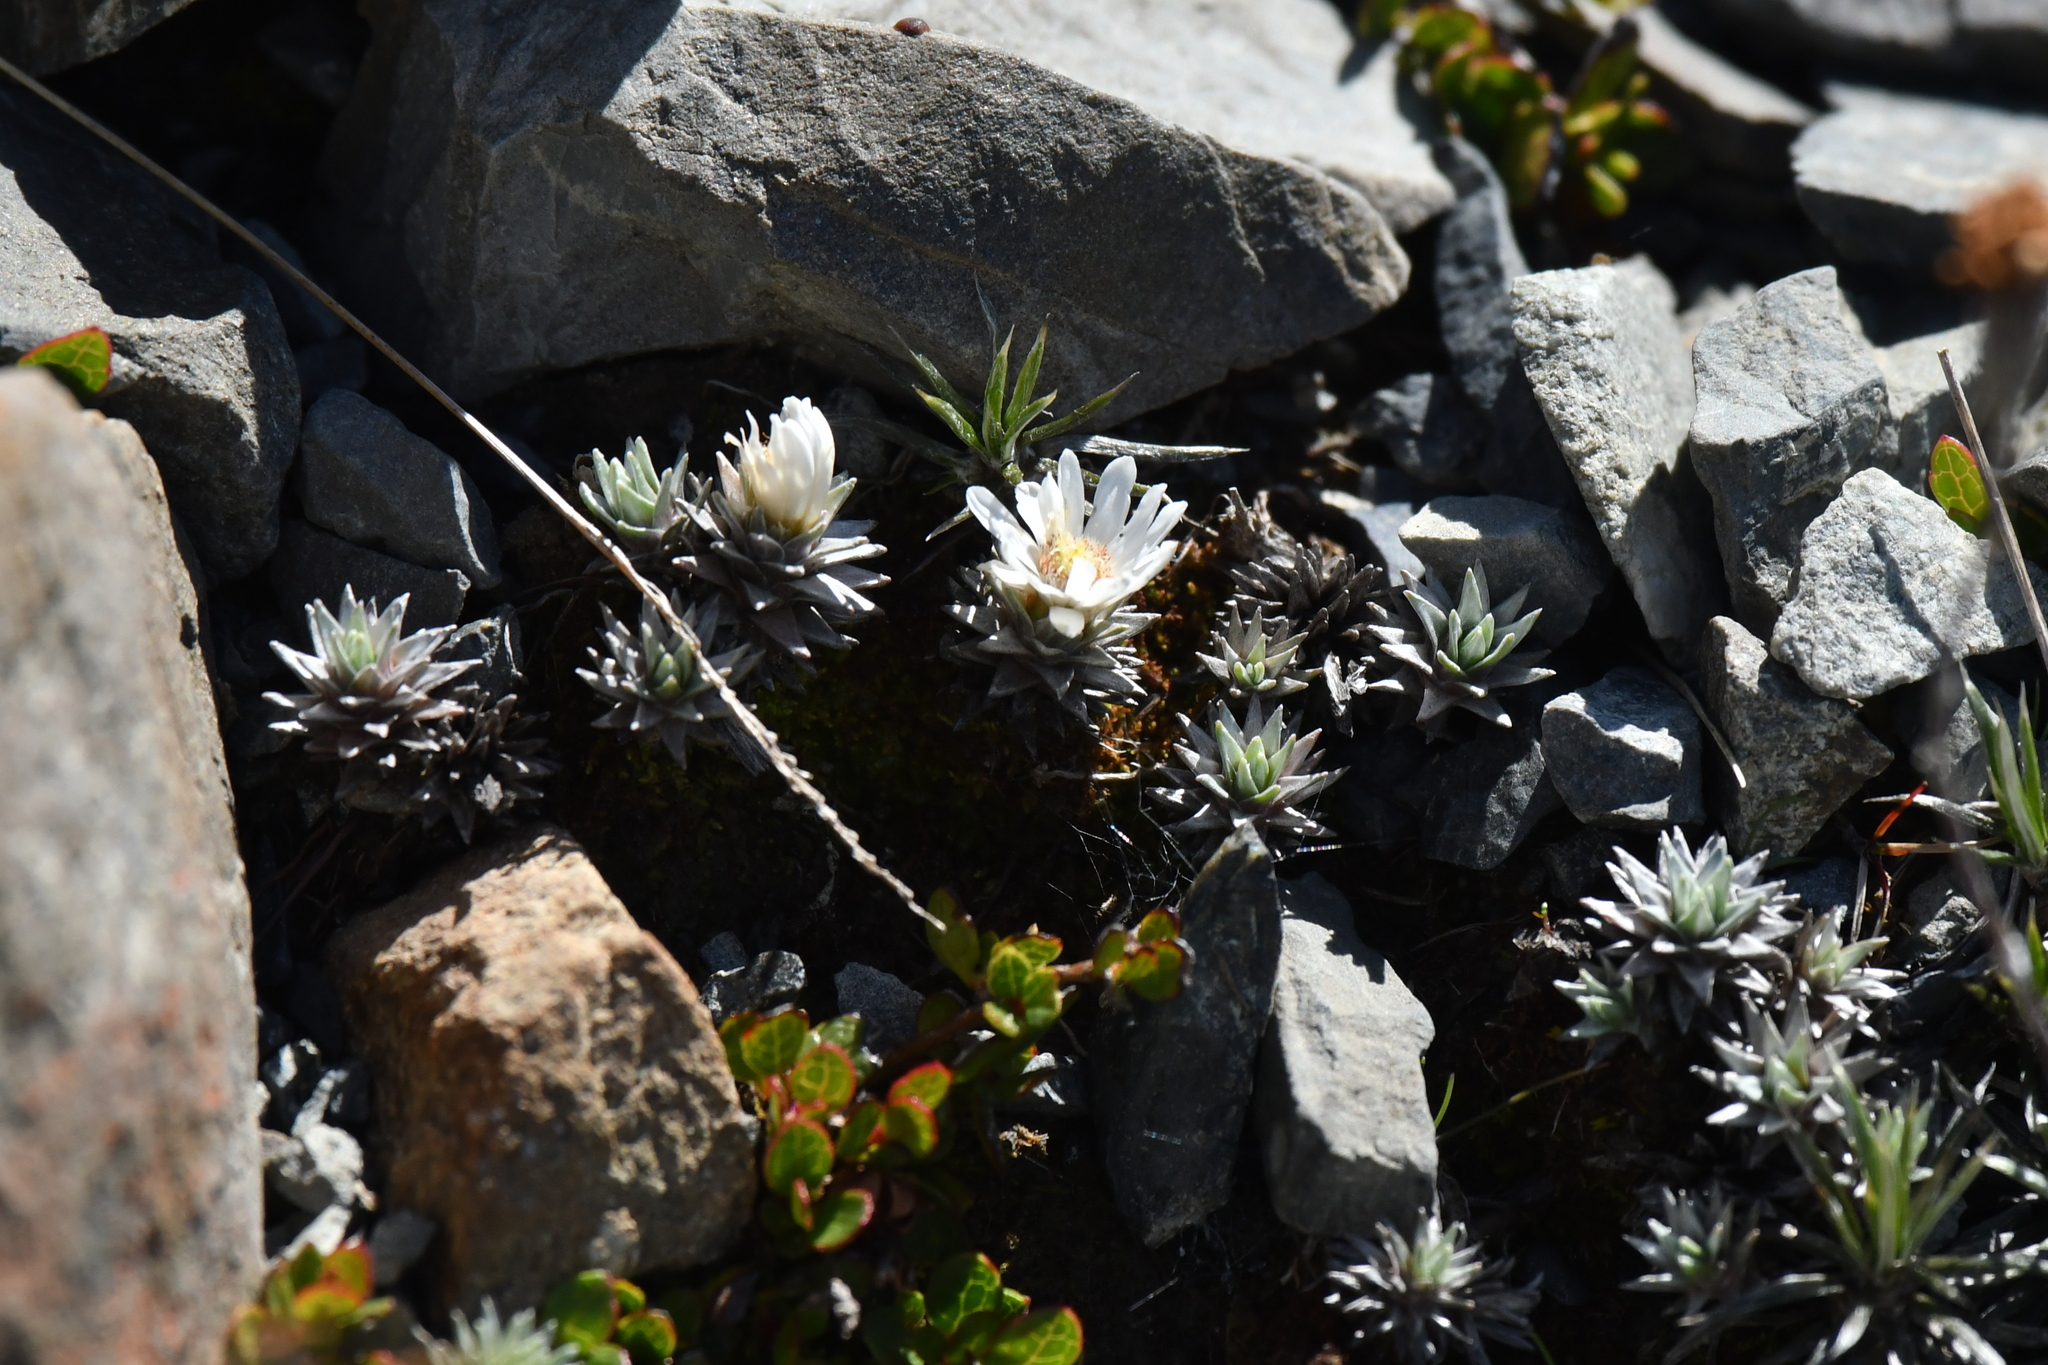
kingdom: Plantae
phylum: Tracheophyta
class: Magnoliopsida
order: Asterales
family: Asteraceae
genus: Raoulia
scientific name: Raoulia grandiflora
